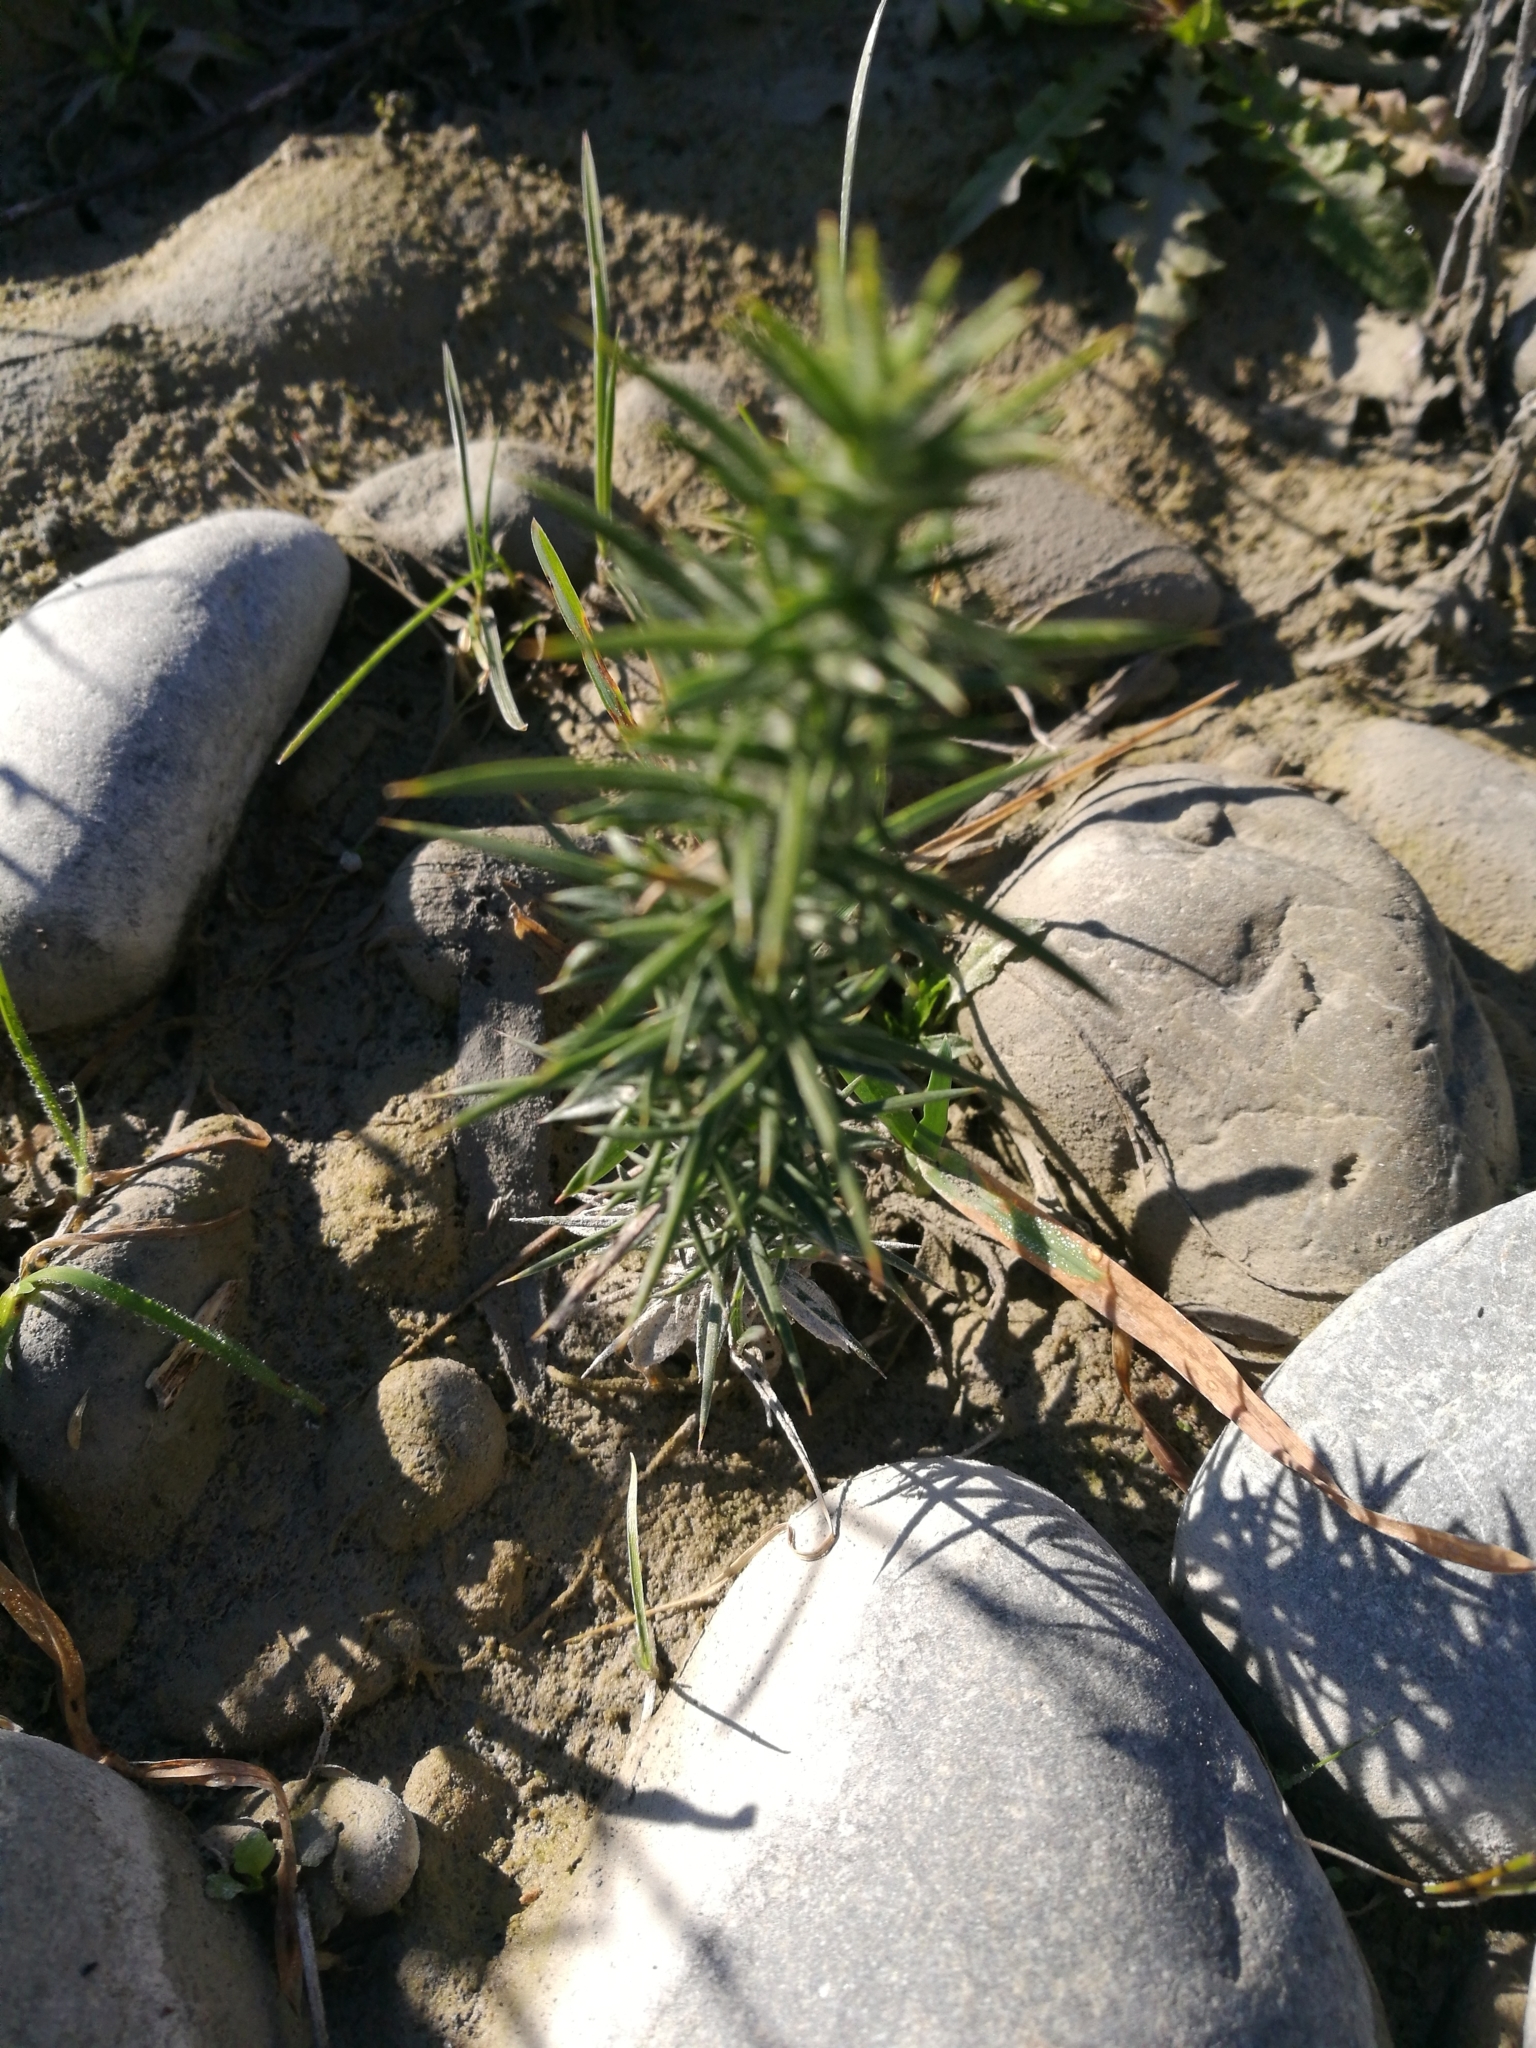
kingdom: Plantae
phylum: Tracheophyta
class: Magnoliopsida
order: Fabales
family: Fabaceae
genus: Ulex
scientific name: Ulex europaeus
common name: Common gorse
